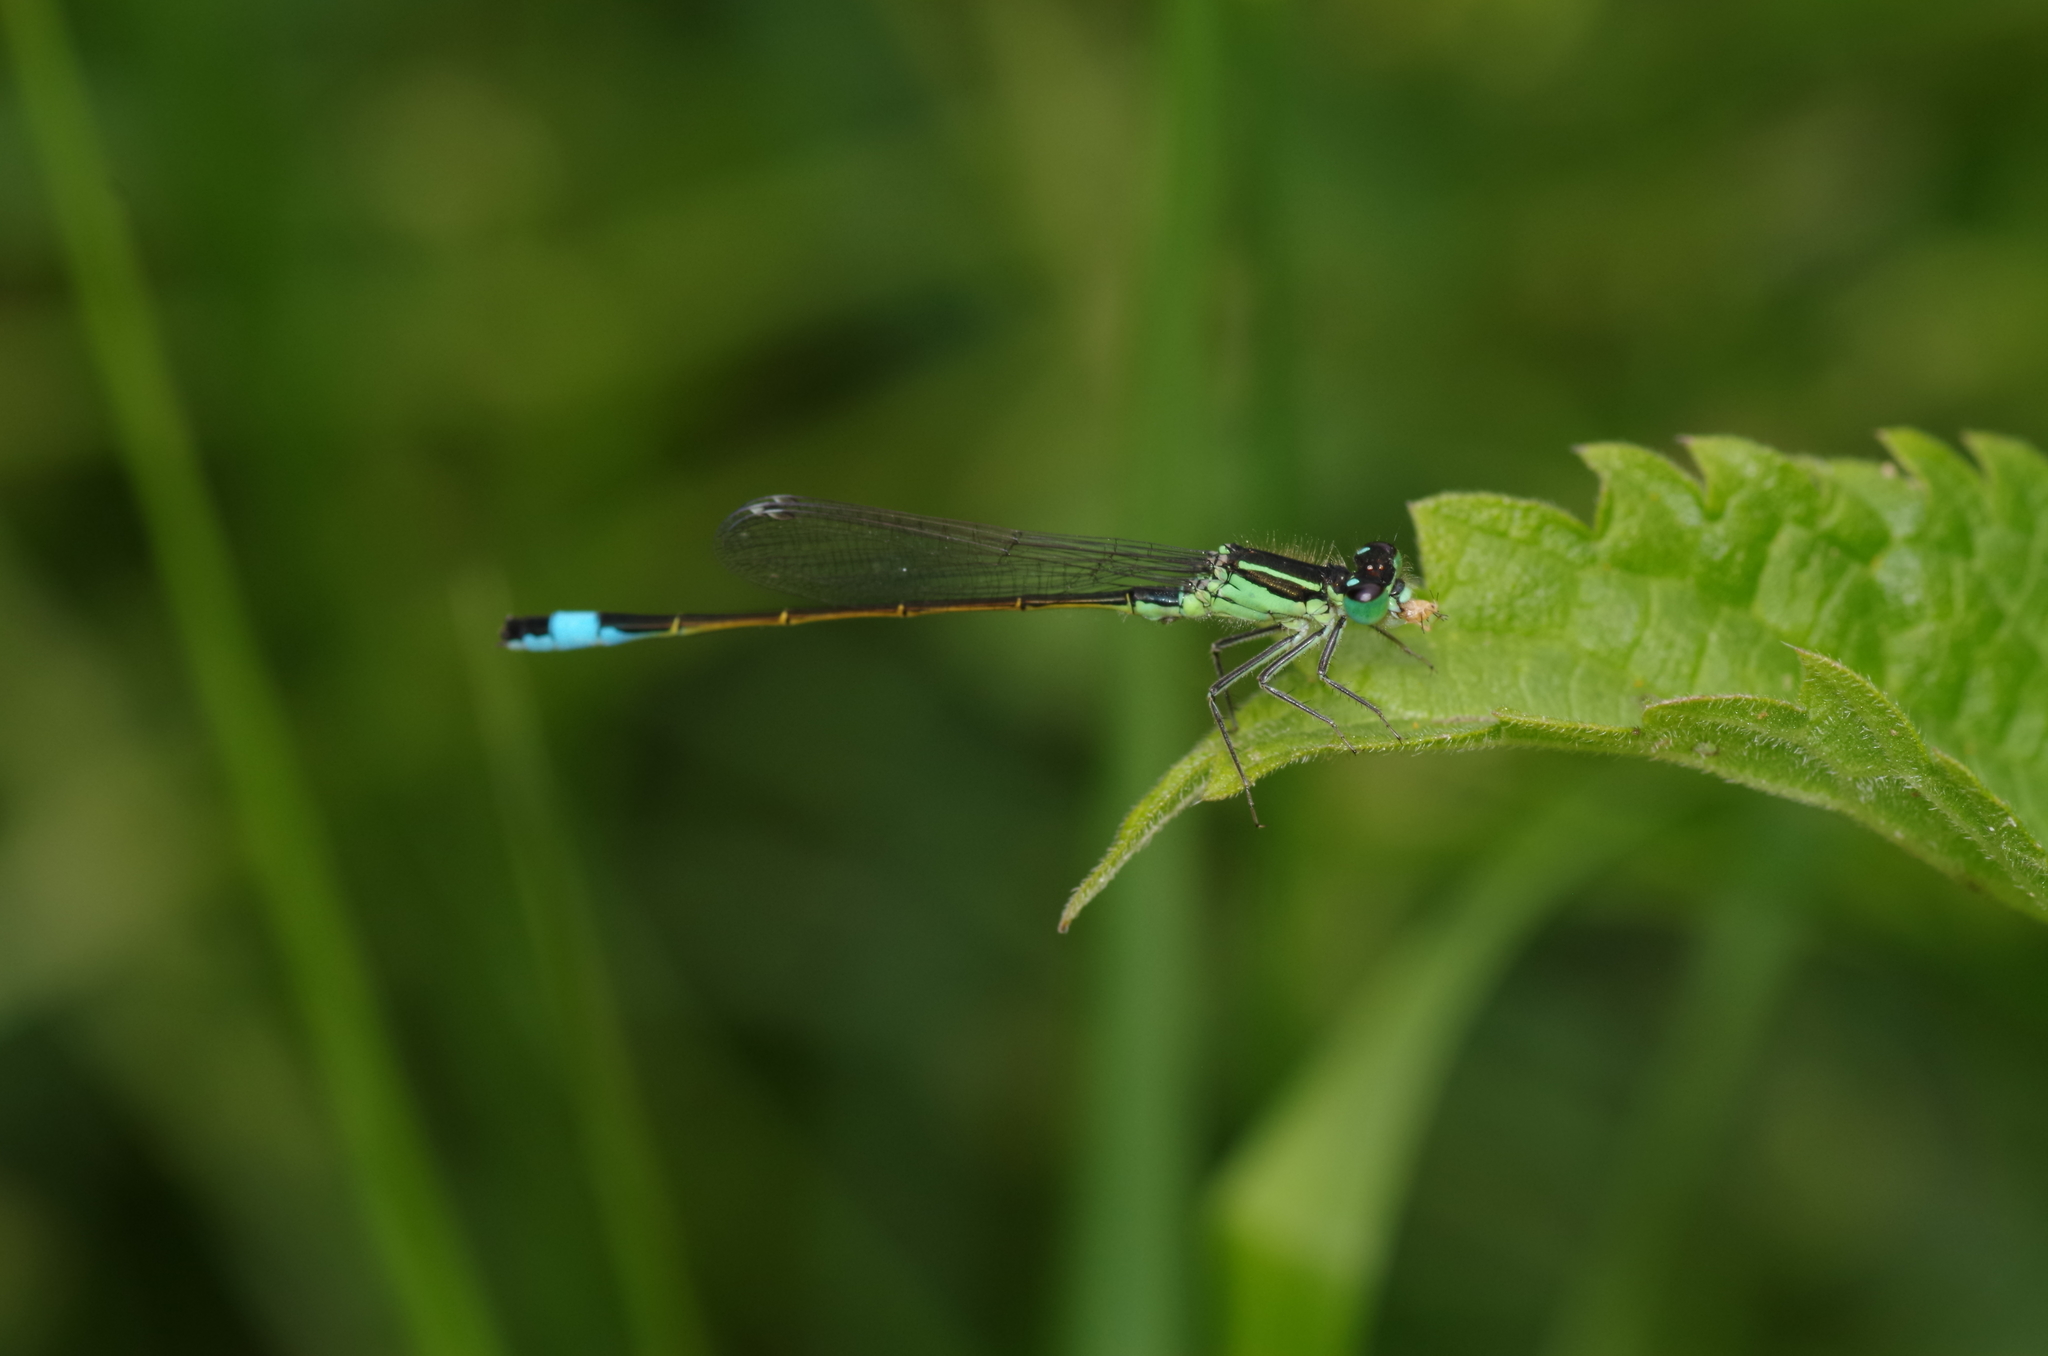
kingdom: Animalia
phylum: Arthropoda
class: Insecta
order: Odonata
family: Coenagrionidae
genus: Ischnura
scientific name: Ischnura elegans
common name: Blue-tailed damselfly
